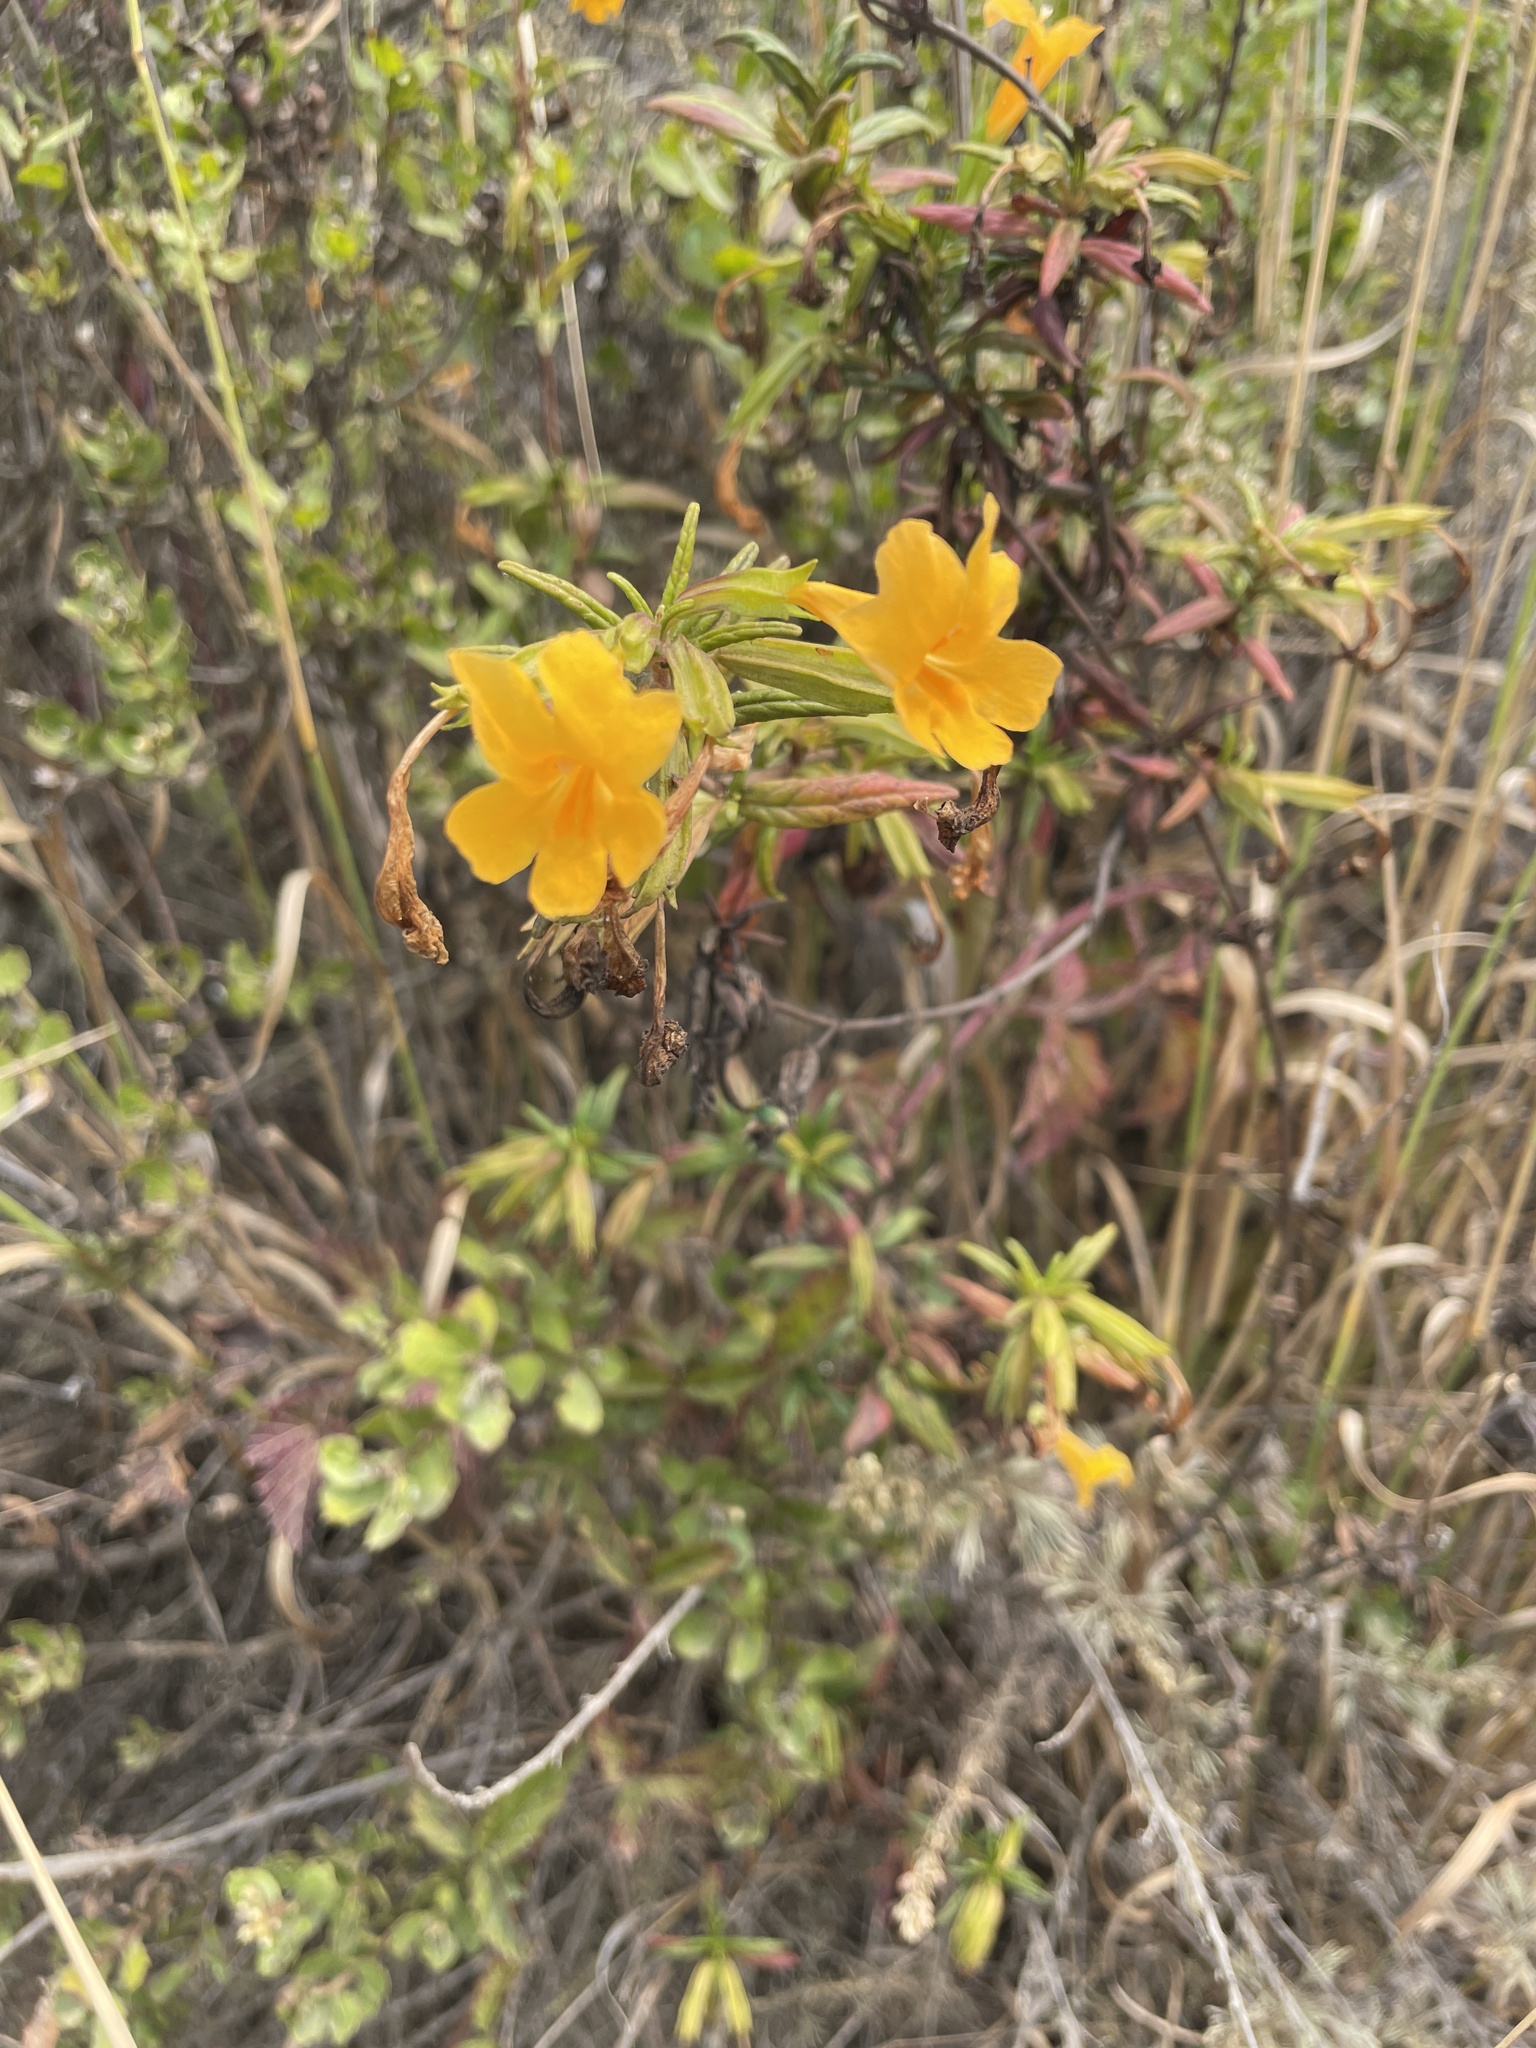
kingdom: Plantae
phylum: Tracheophyta
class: Magnoliopsida
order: Lamiales
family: Phrymaceae
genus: Diplacus
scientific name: Diplacus aurantiacus
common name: Bush monkey-flower
